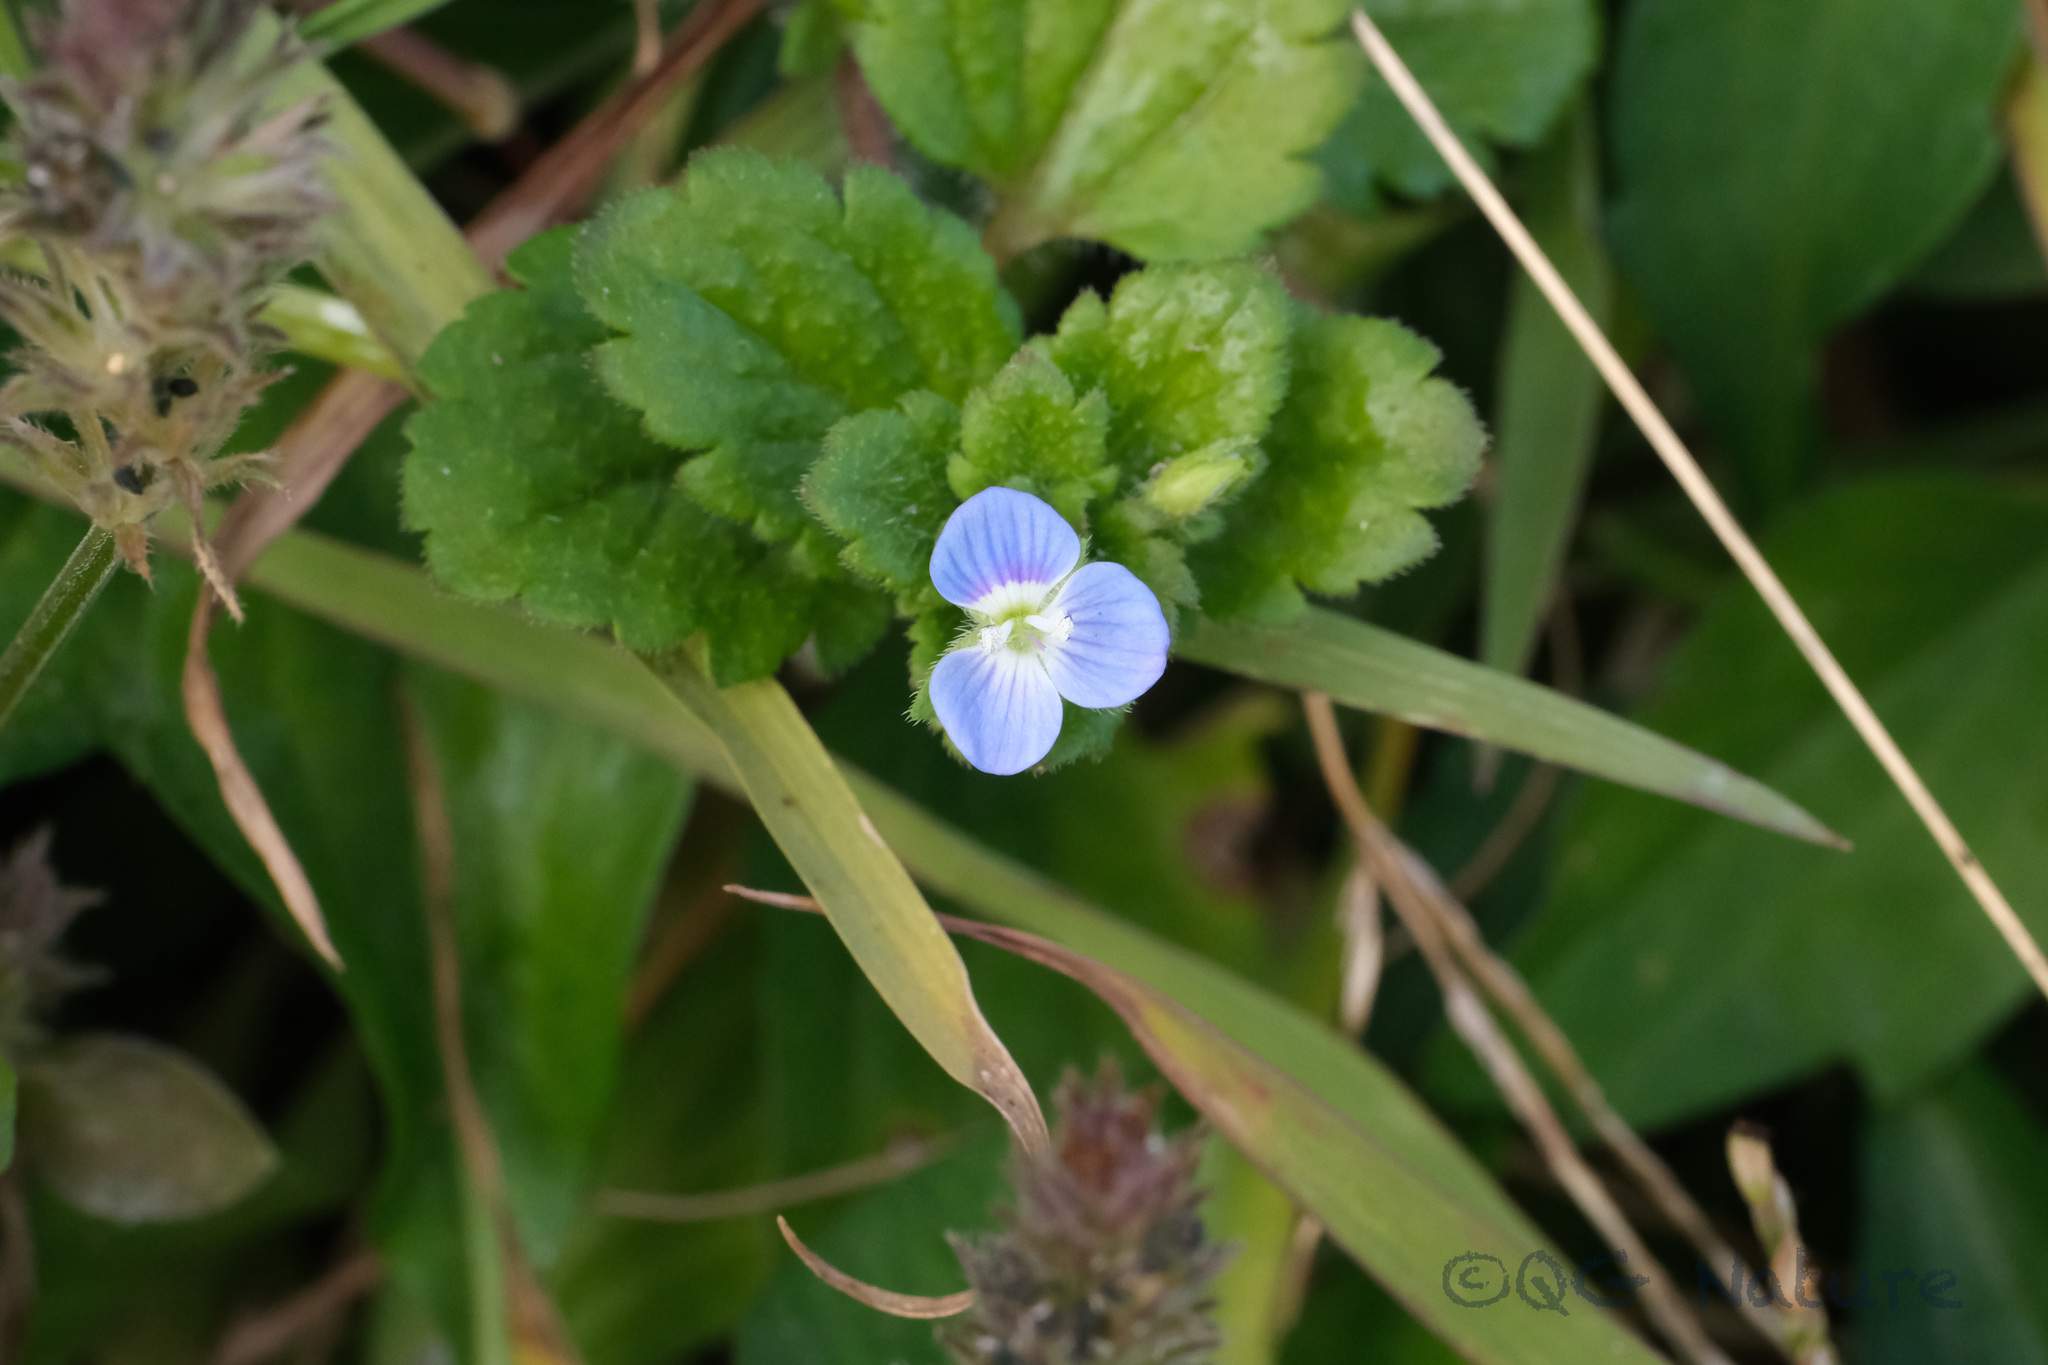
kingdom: Plantae
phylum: Tracheophyta
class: Magnoliopsida
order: Lamiales
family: Plantaginaceae
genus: Veronica
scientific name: Veronica persica
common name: Common field-speedwell
